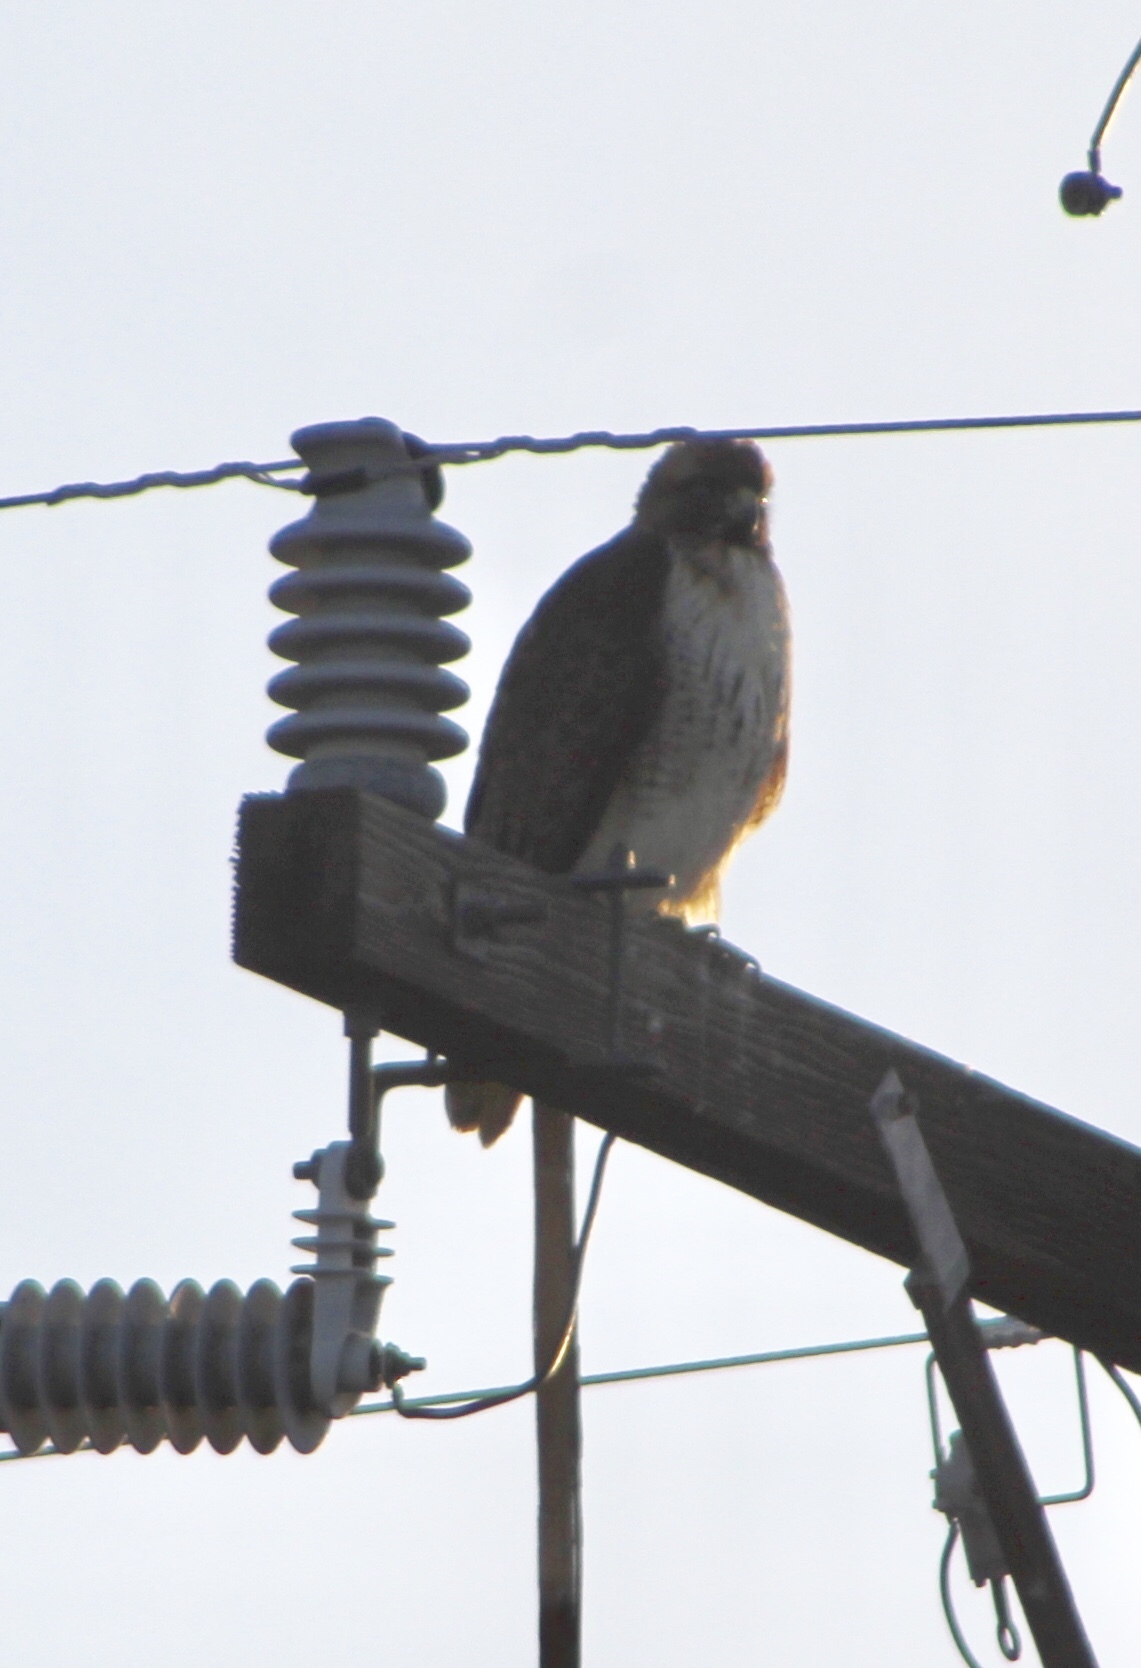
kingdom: Animalia
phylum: Chordata
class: Aves
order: Accipitriformes
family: Accipitridae
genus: Buteo
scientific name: Buteo jamaicensis
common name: Red-tailed hawk
